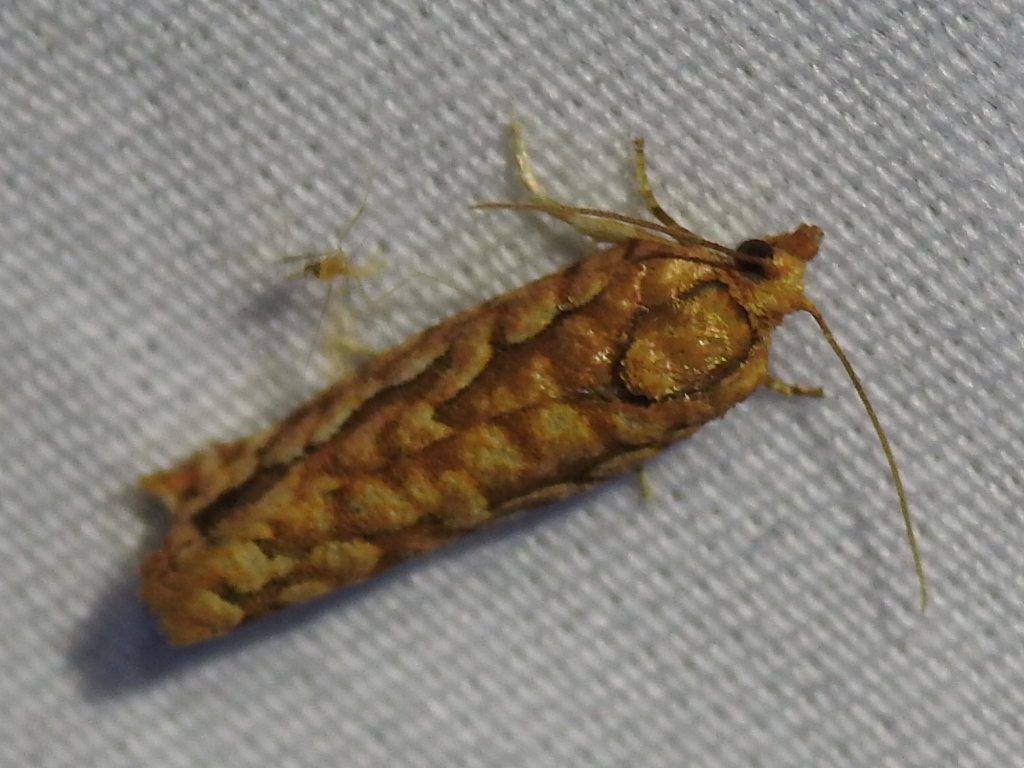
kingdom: Animalia
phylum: Arthropoda
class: Insecta
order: Lepidoptera
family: Tortricidae
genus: Choristoneura
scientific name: Choristoneura houstonana
